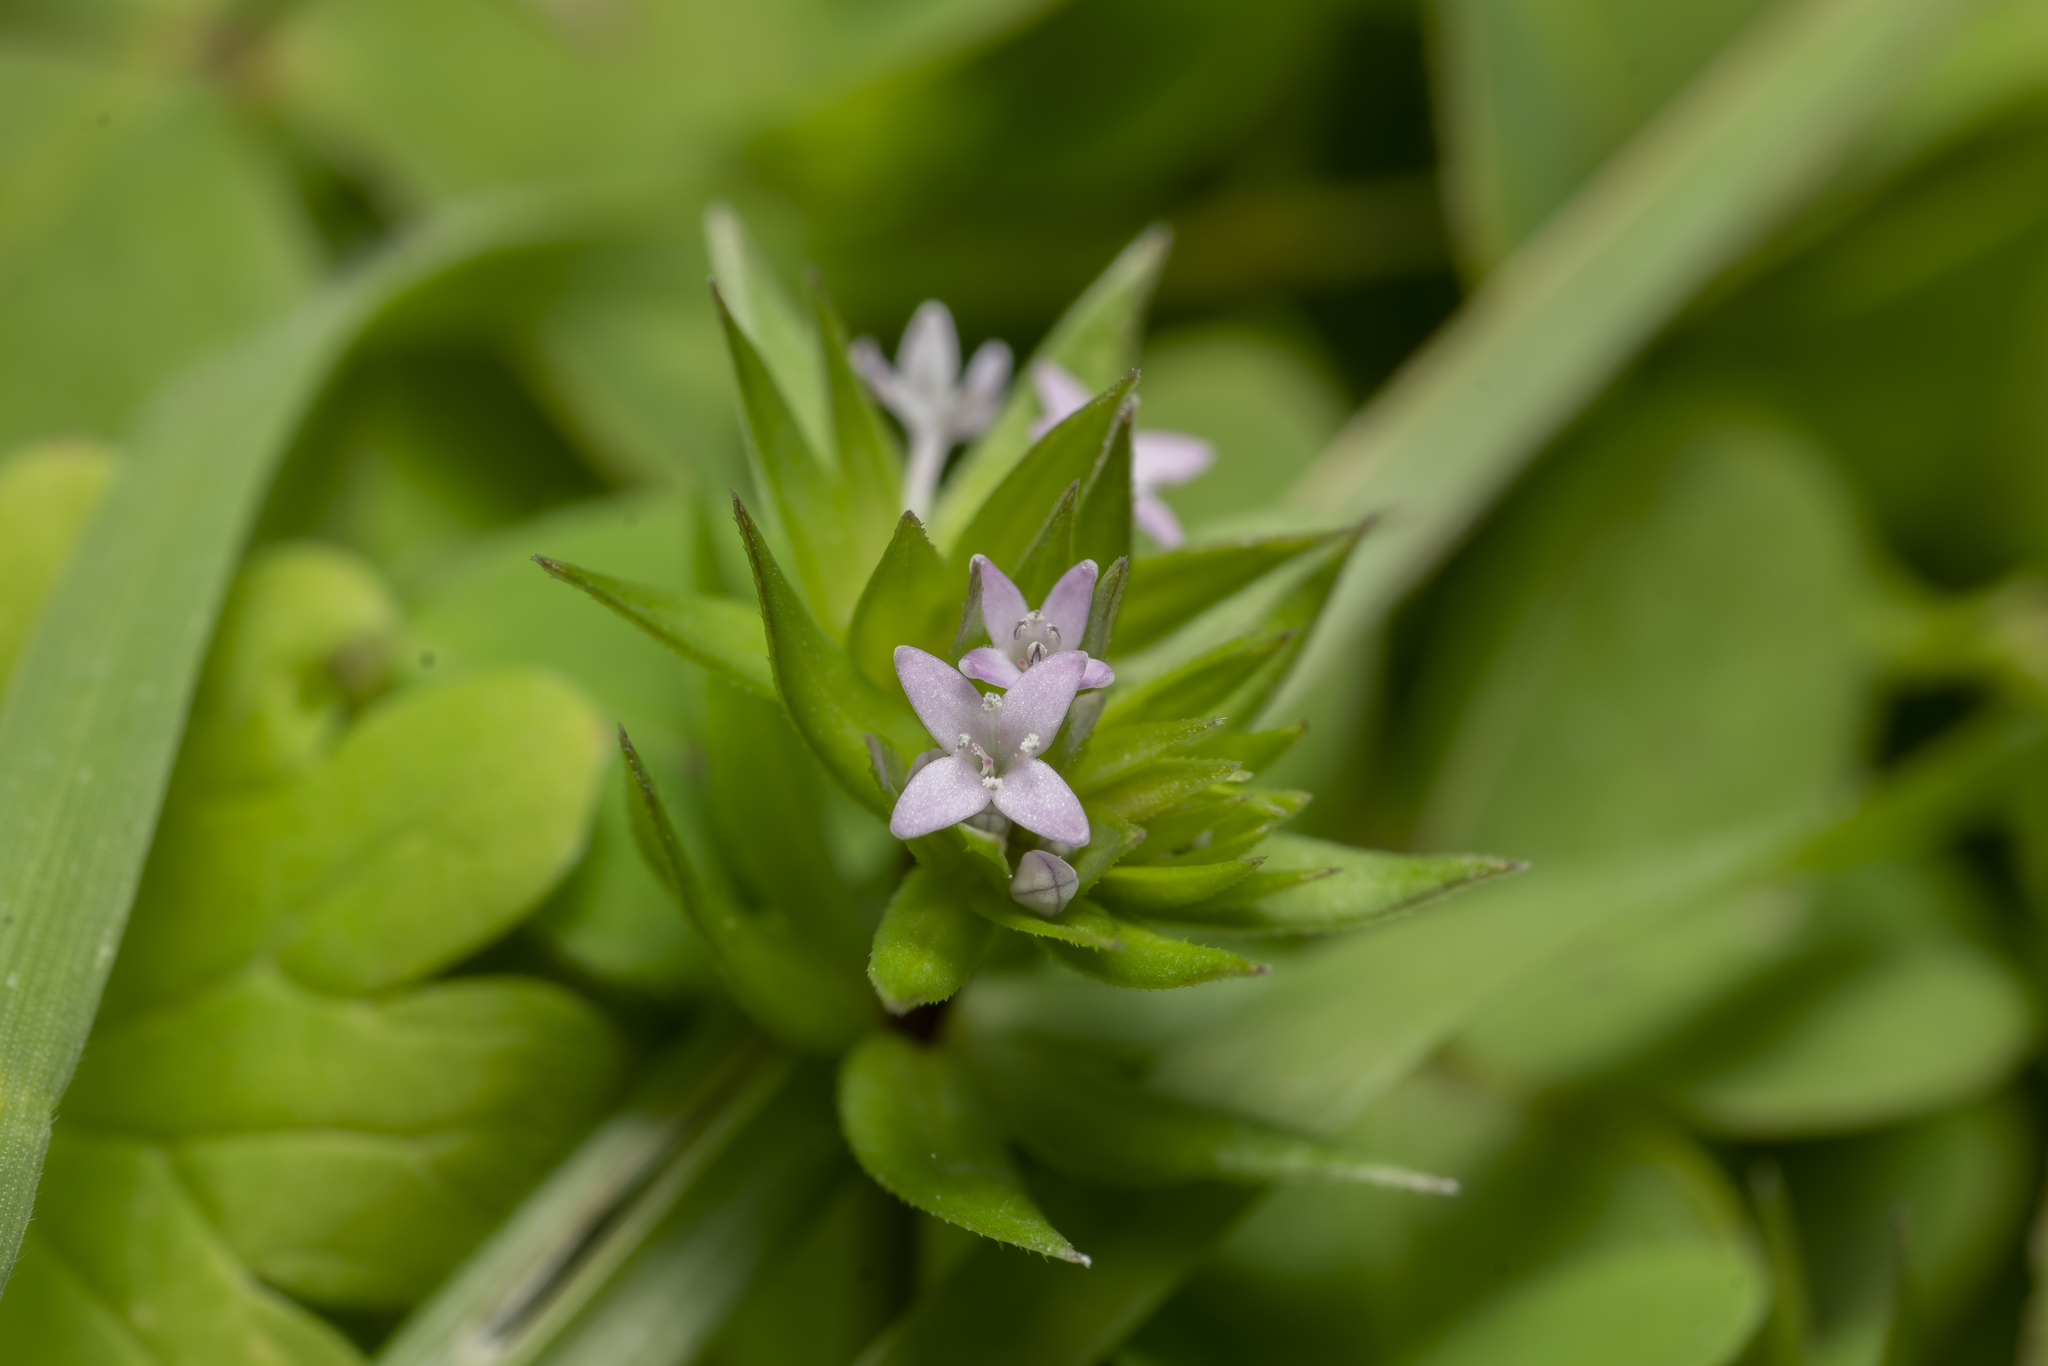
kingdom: Plantae
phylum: Tracheophyta
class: Magnoliopsida
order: Gentianales
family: Rubiaceae
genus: Sherardia
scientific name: Sherardia arvensis
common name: Field madder
